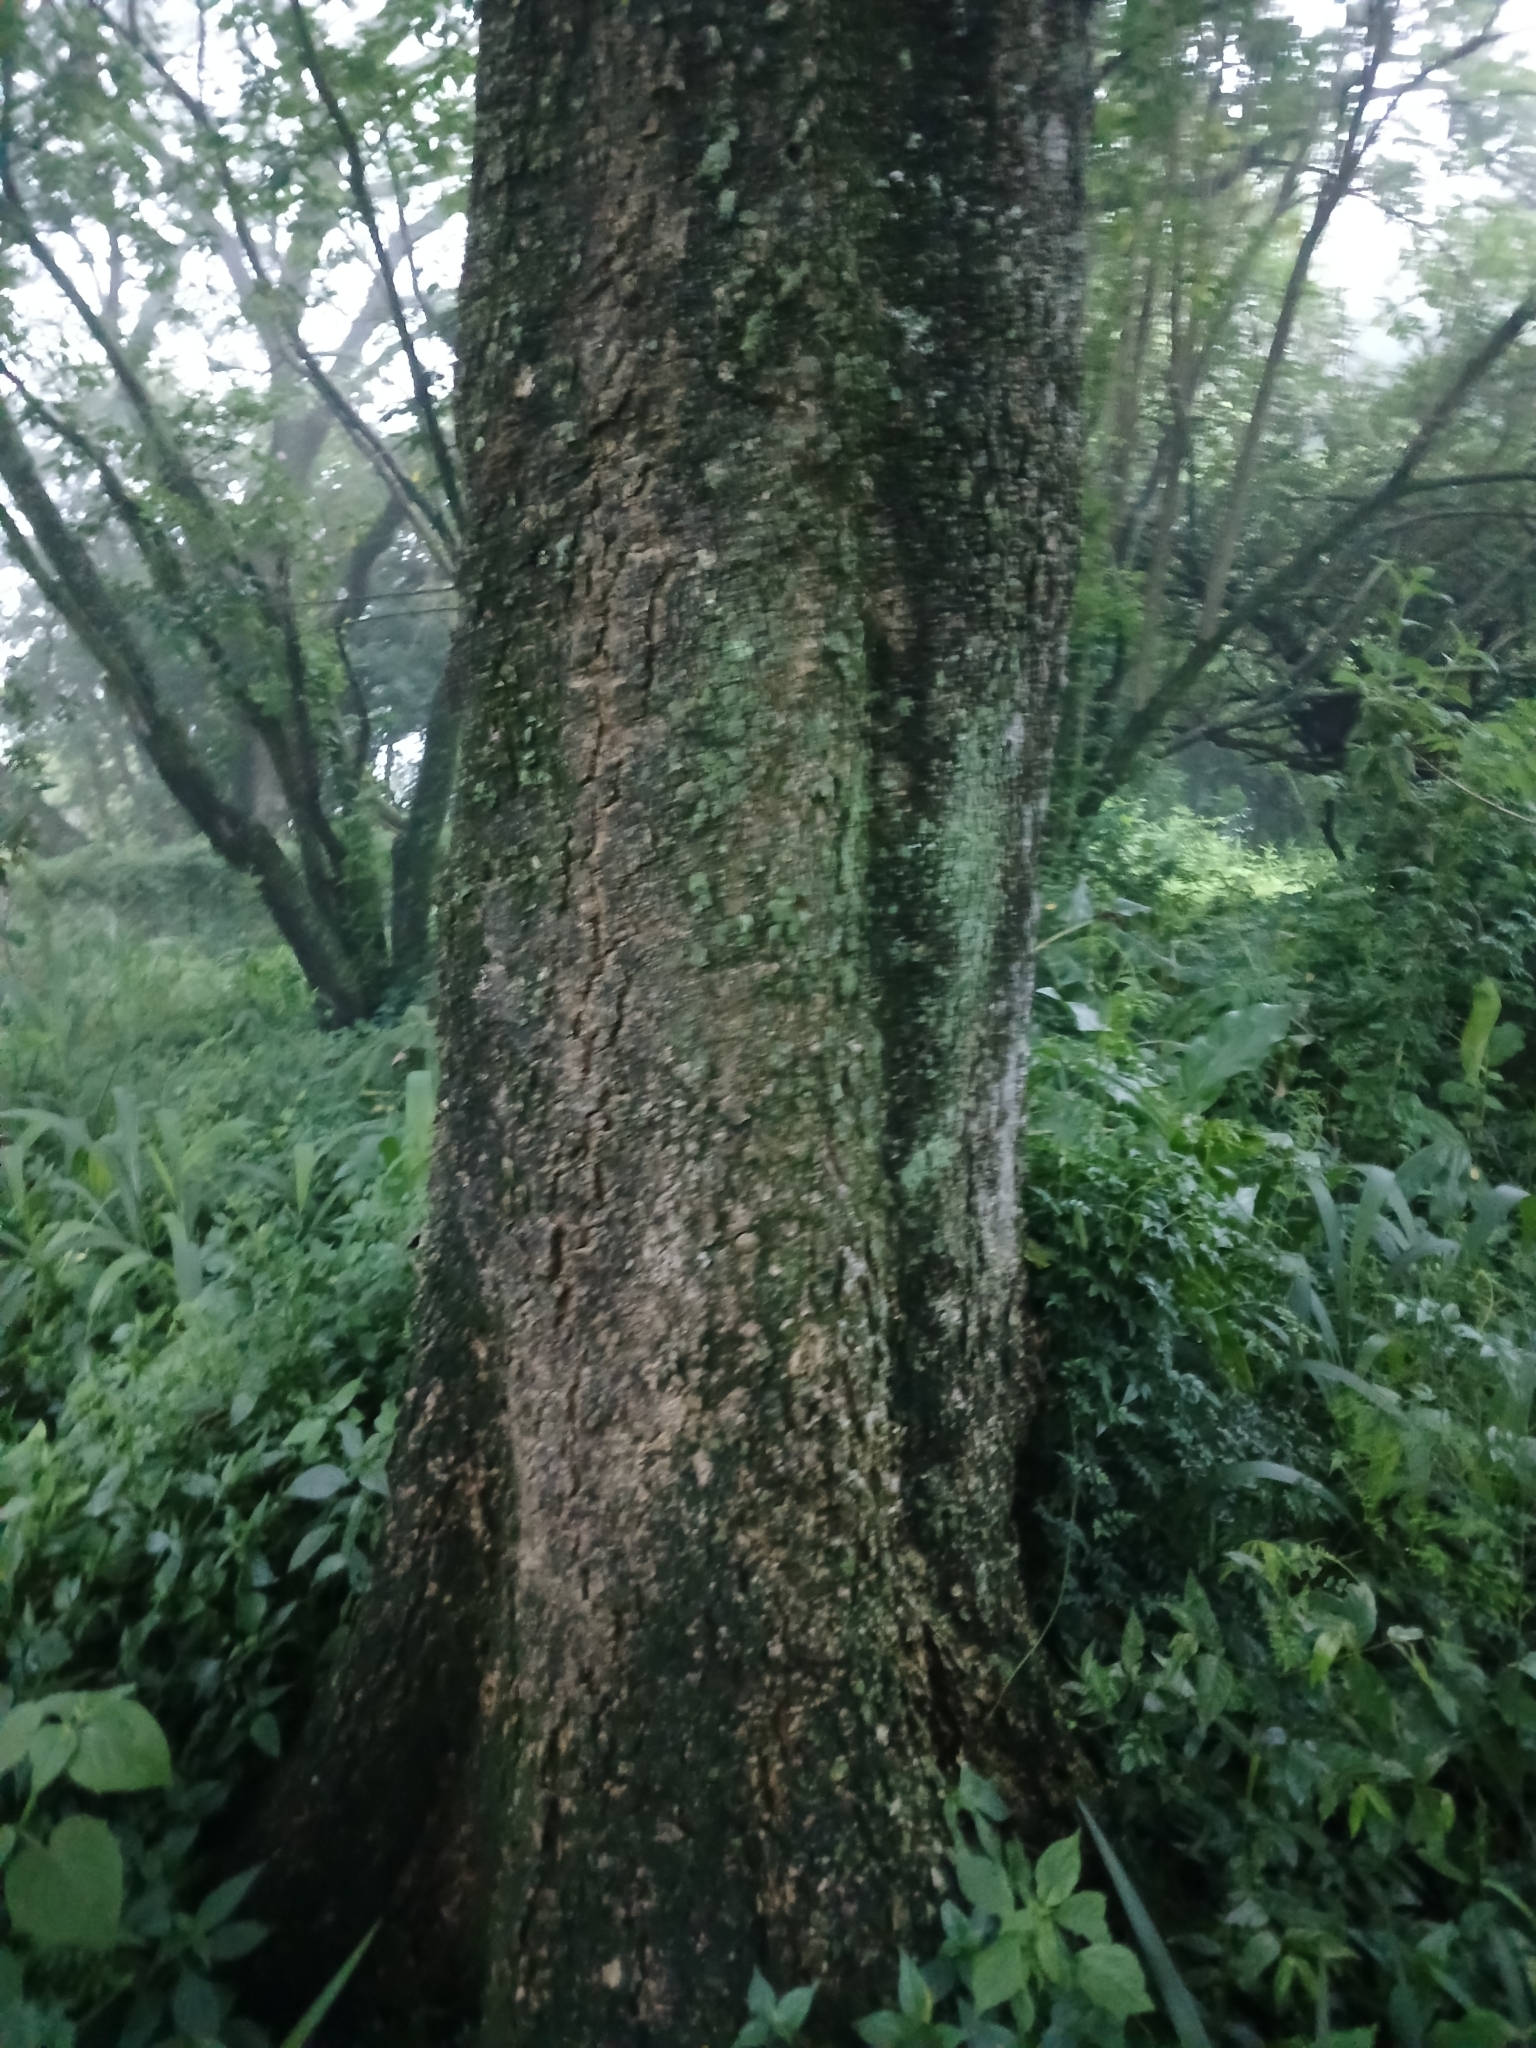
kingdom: Plantae
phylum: Tracheophyta
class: Magnoliopsida
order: Gentianales
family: Apocynaceae
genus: Rauvolfia
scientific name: Rauvolfia caffra
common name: Quininetree
